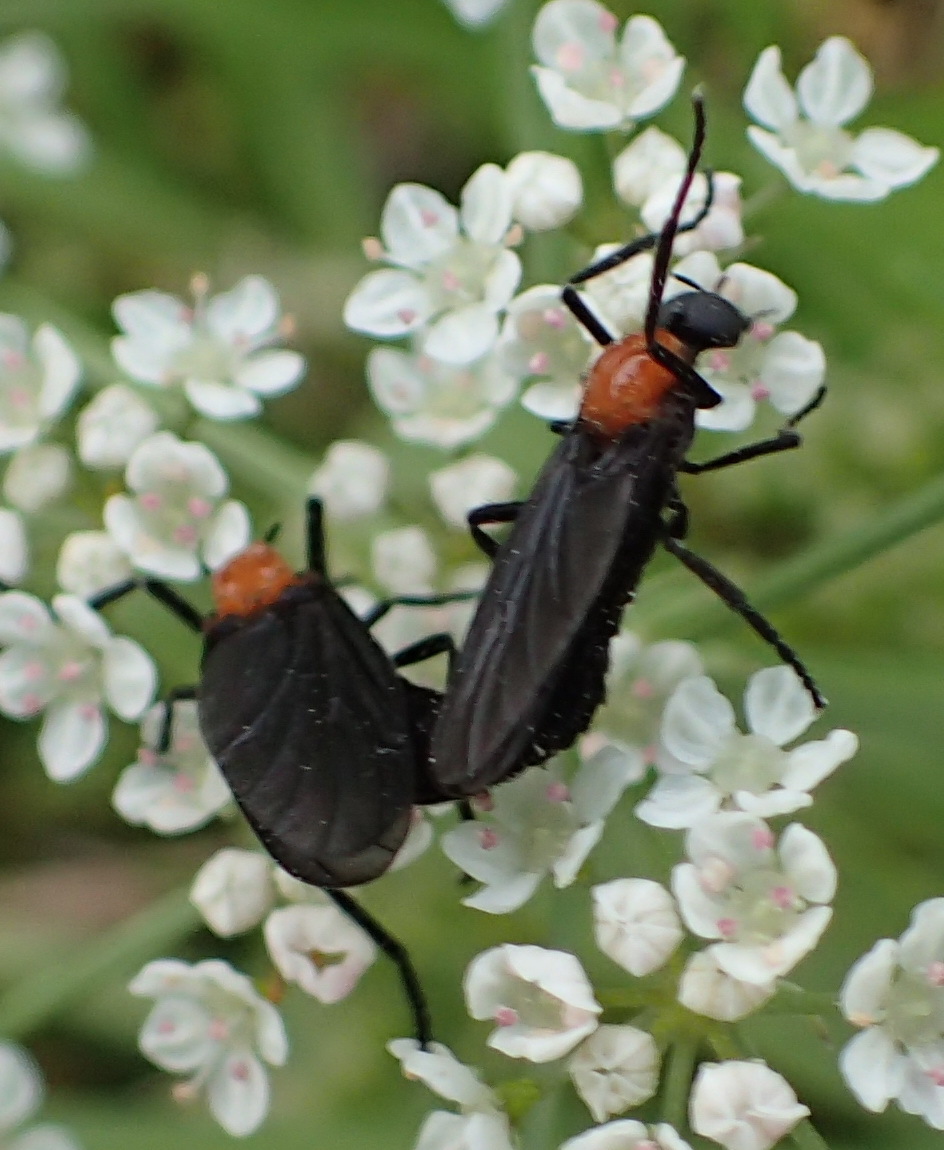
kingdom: Animalia
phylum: Arthropoda
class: Insecta
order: Diptera
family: Bibionidae
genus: Plecia
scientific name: Plecia nearctica
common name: March fly
